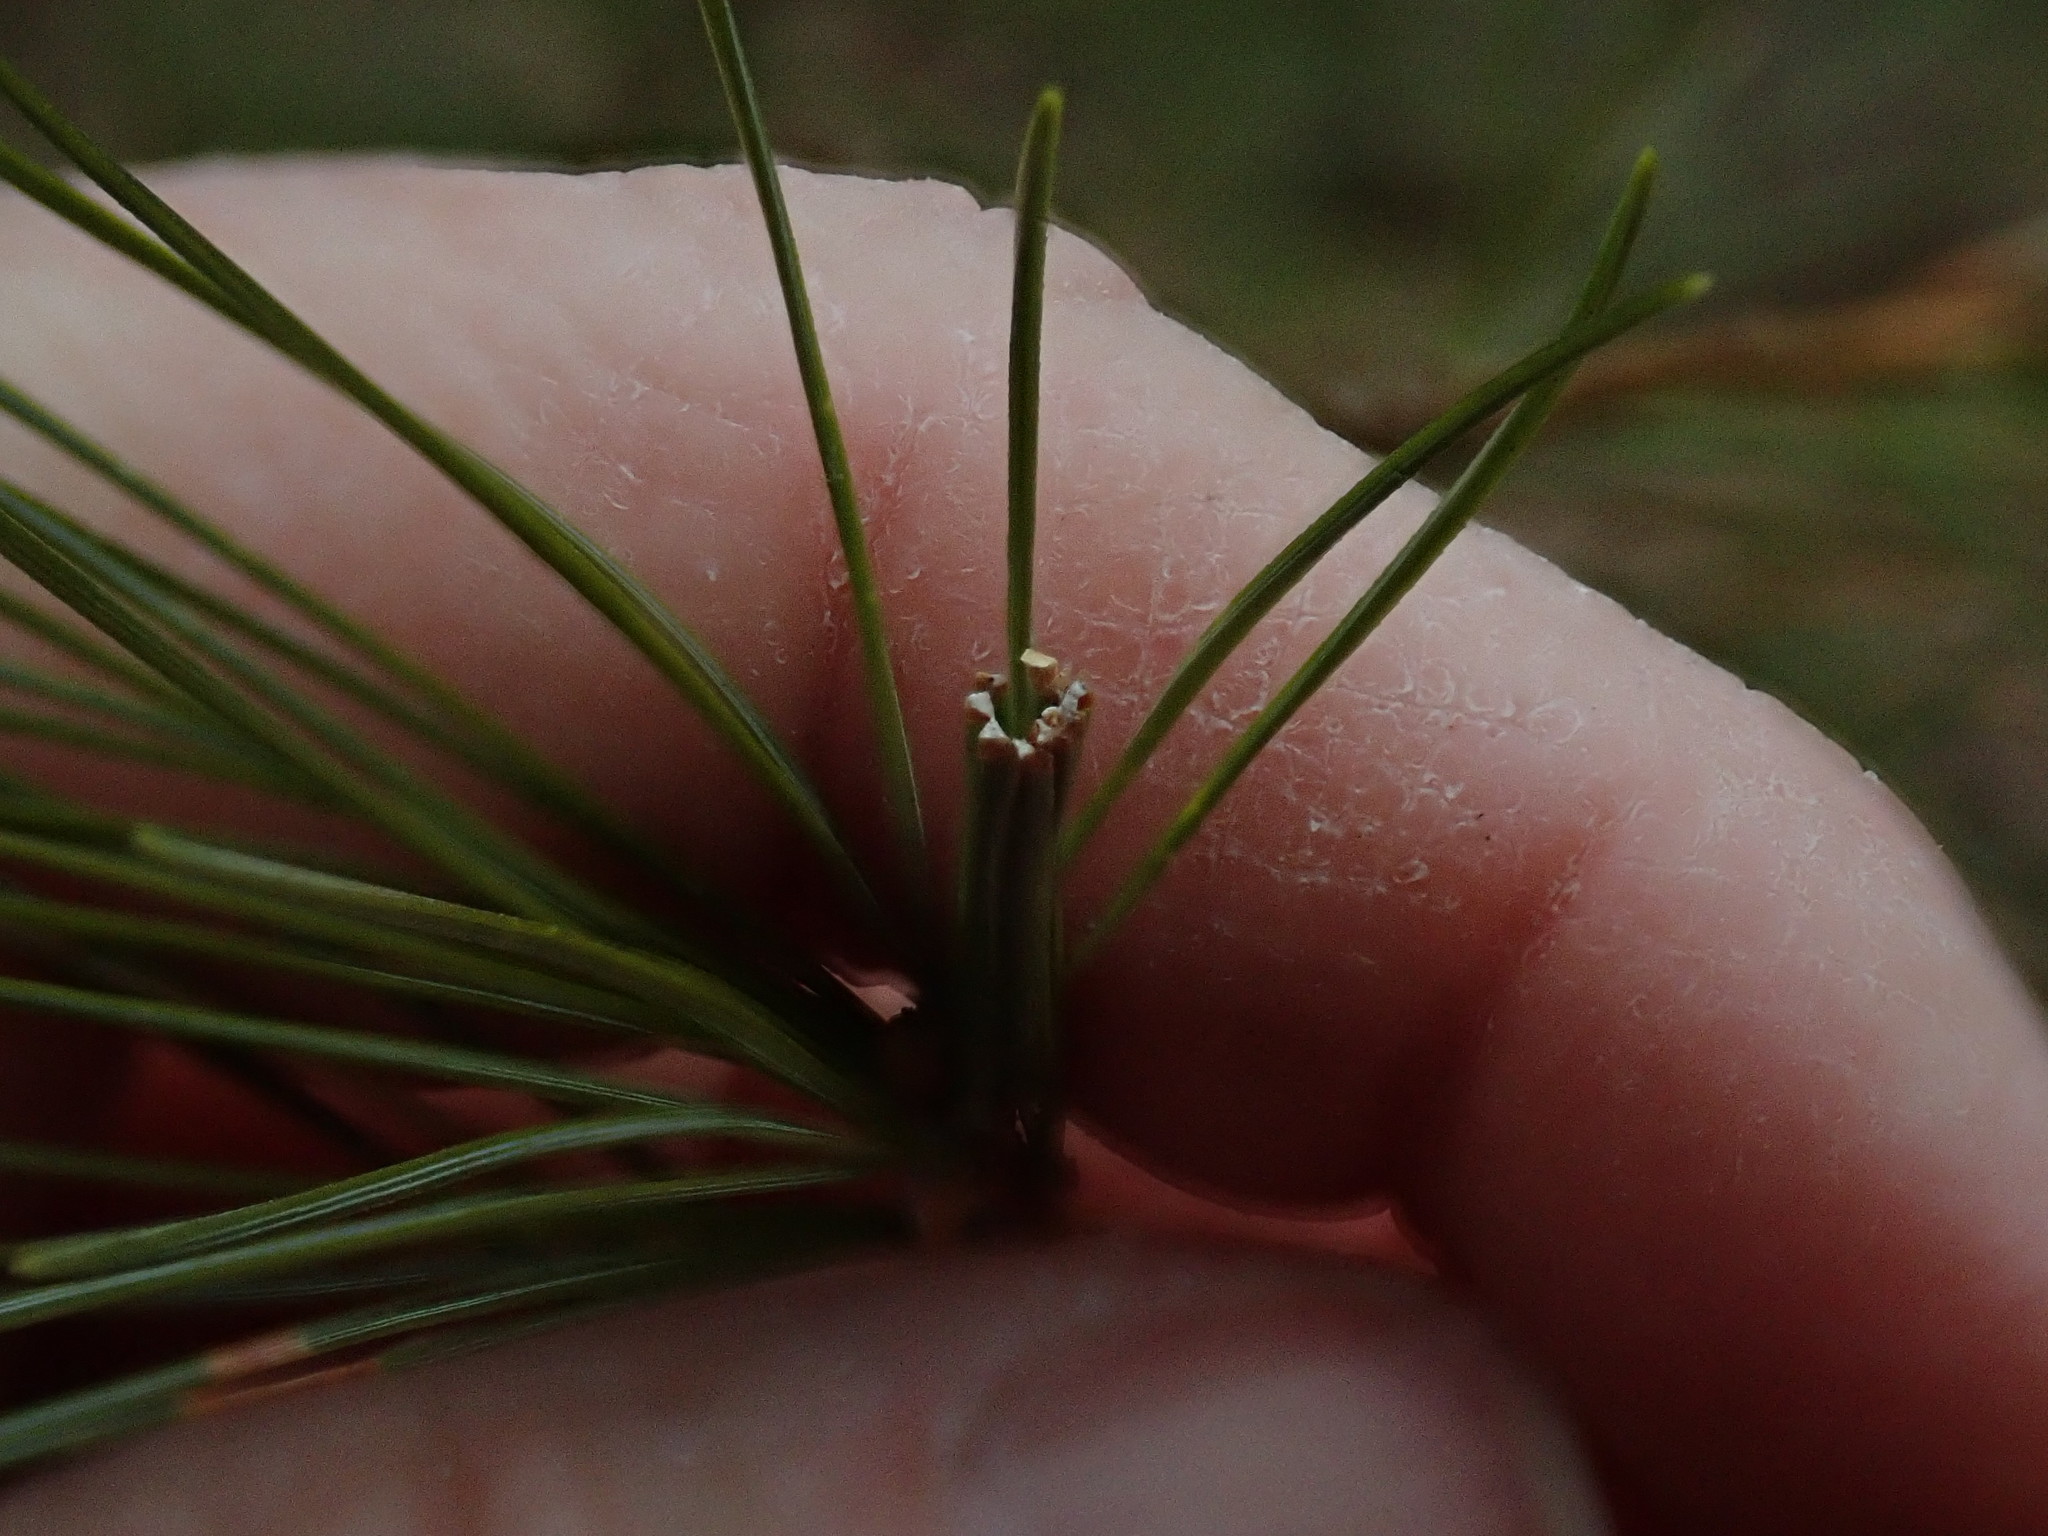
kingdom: Animalia
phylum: Arthropoda
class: Insecta
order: Lepidoptera
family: Tortricidae
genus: Argyrotaenia
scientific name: Argyrotaenia pinatubana
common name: Pine tube moth
